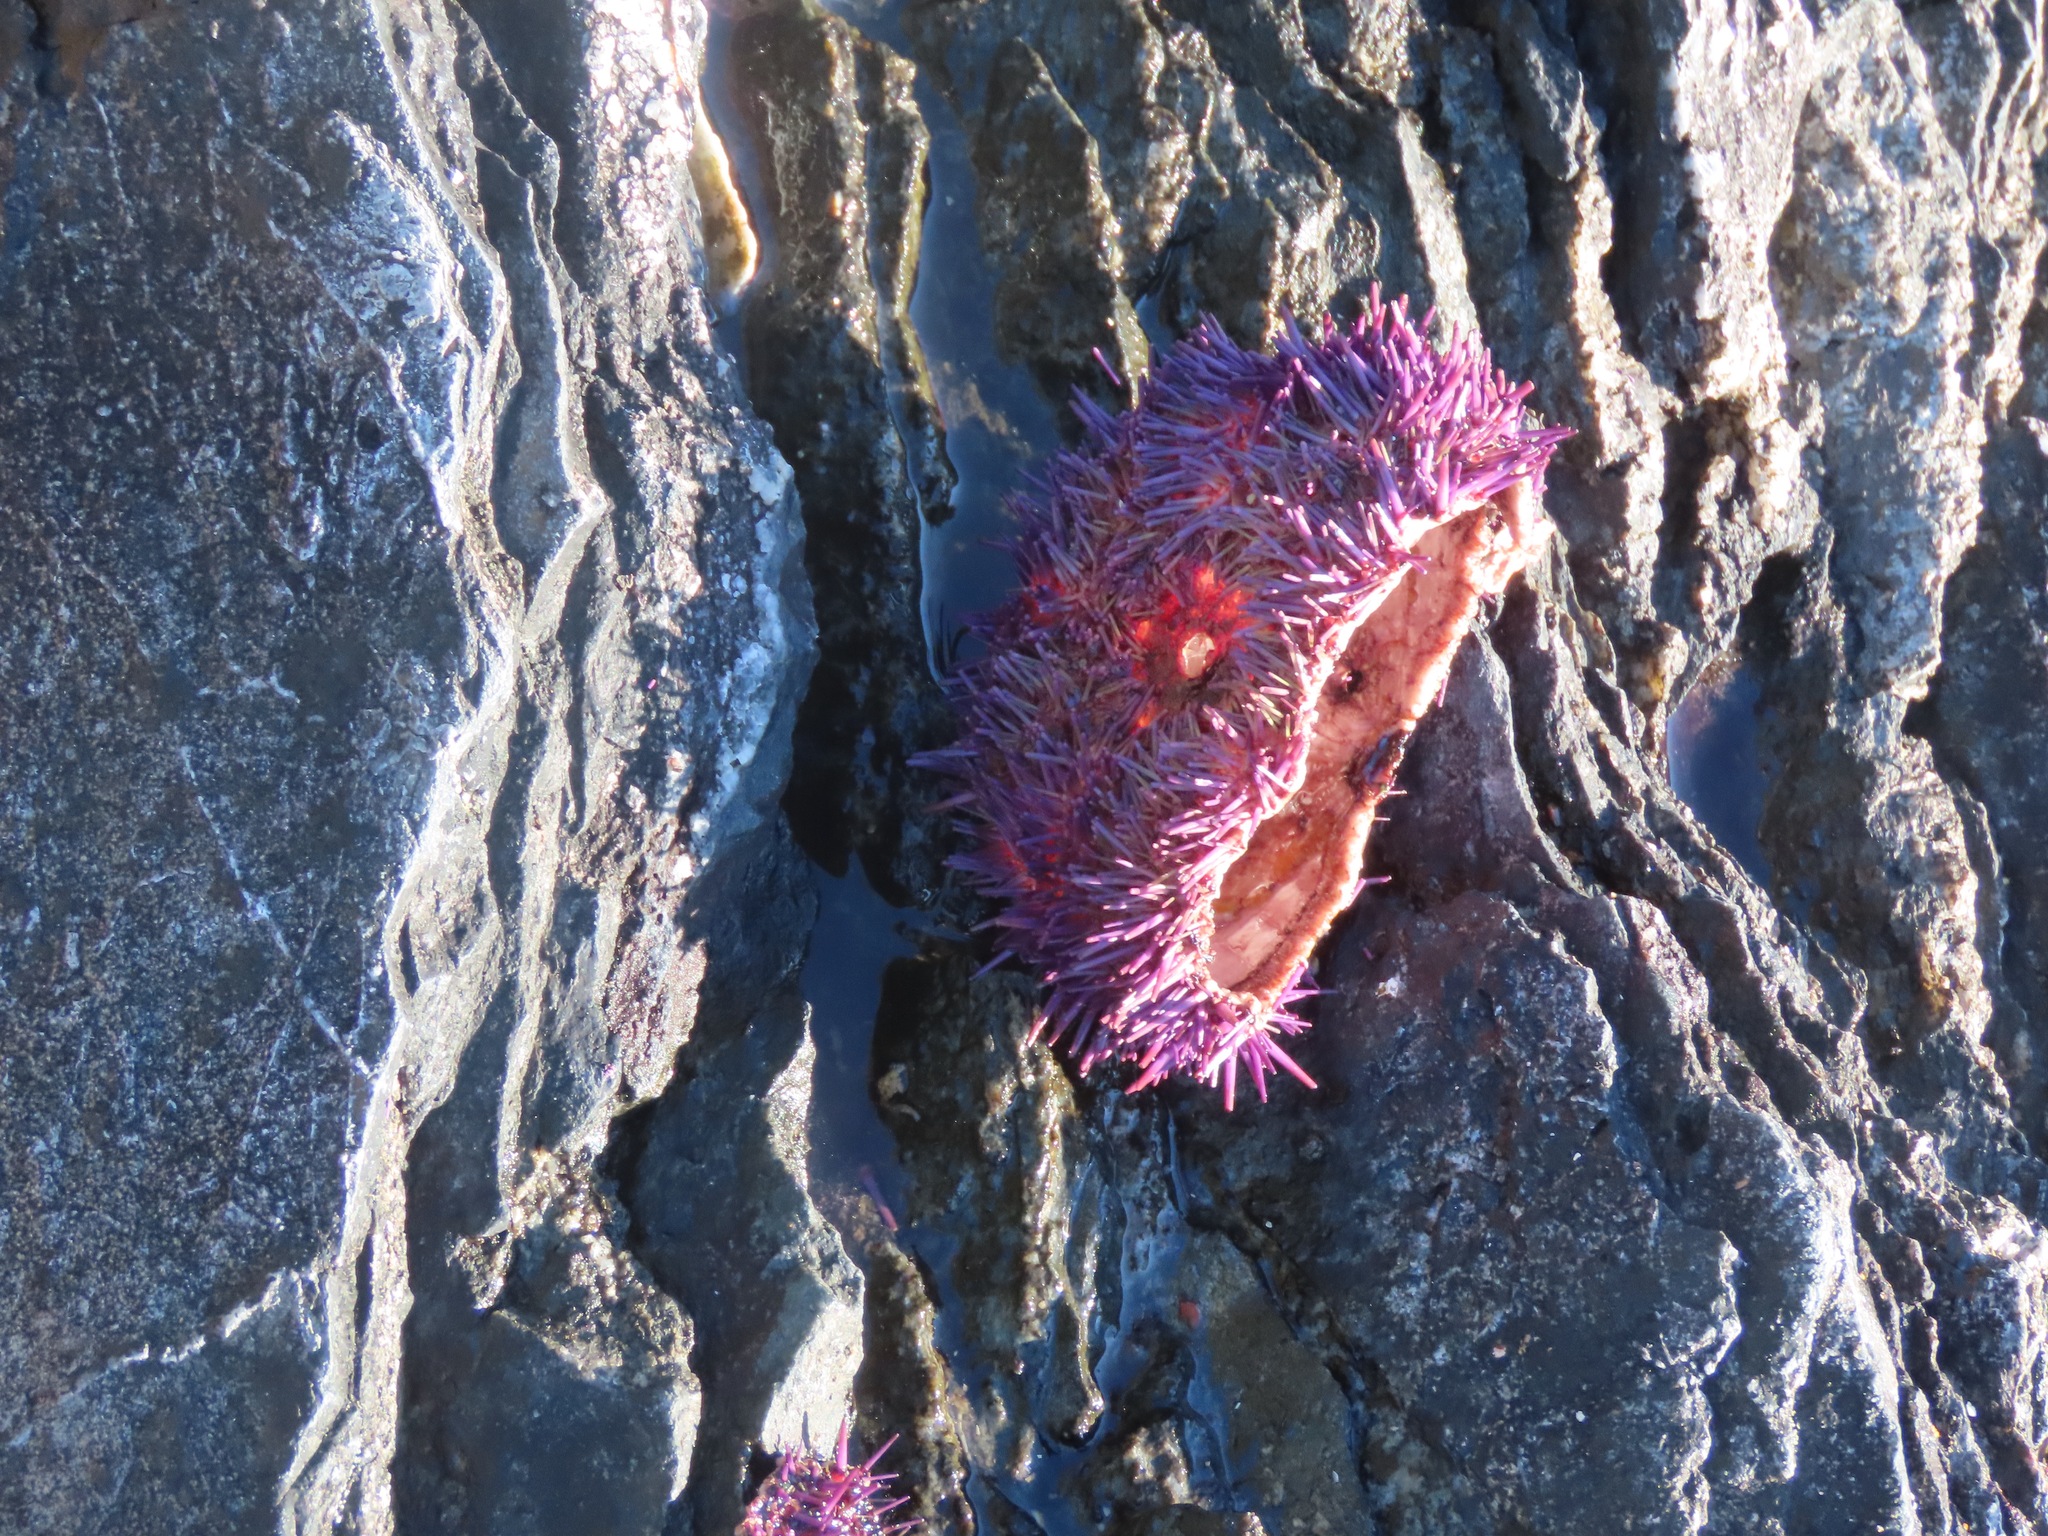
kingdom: Animalia
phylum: Echinodermata
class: Echinoidea
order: Camarodonta
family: Strongylocentrotidae
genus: Strongylocentrotus
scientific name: Strongylocentrotus purpuratus
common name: Purple sea urchin
